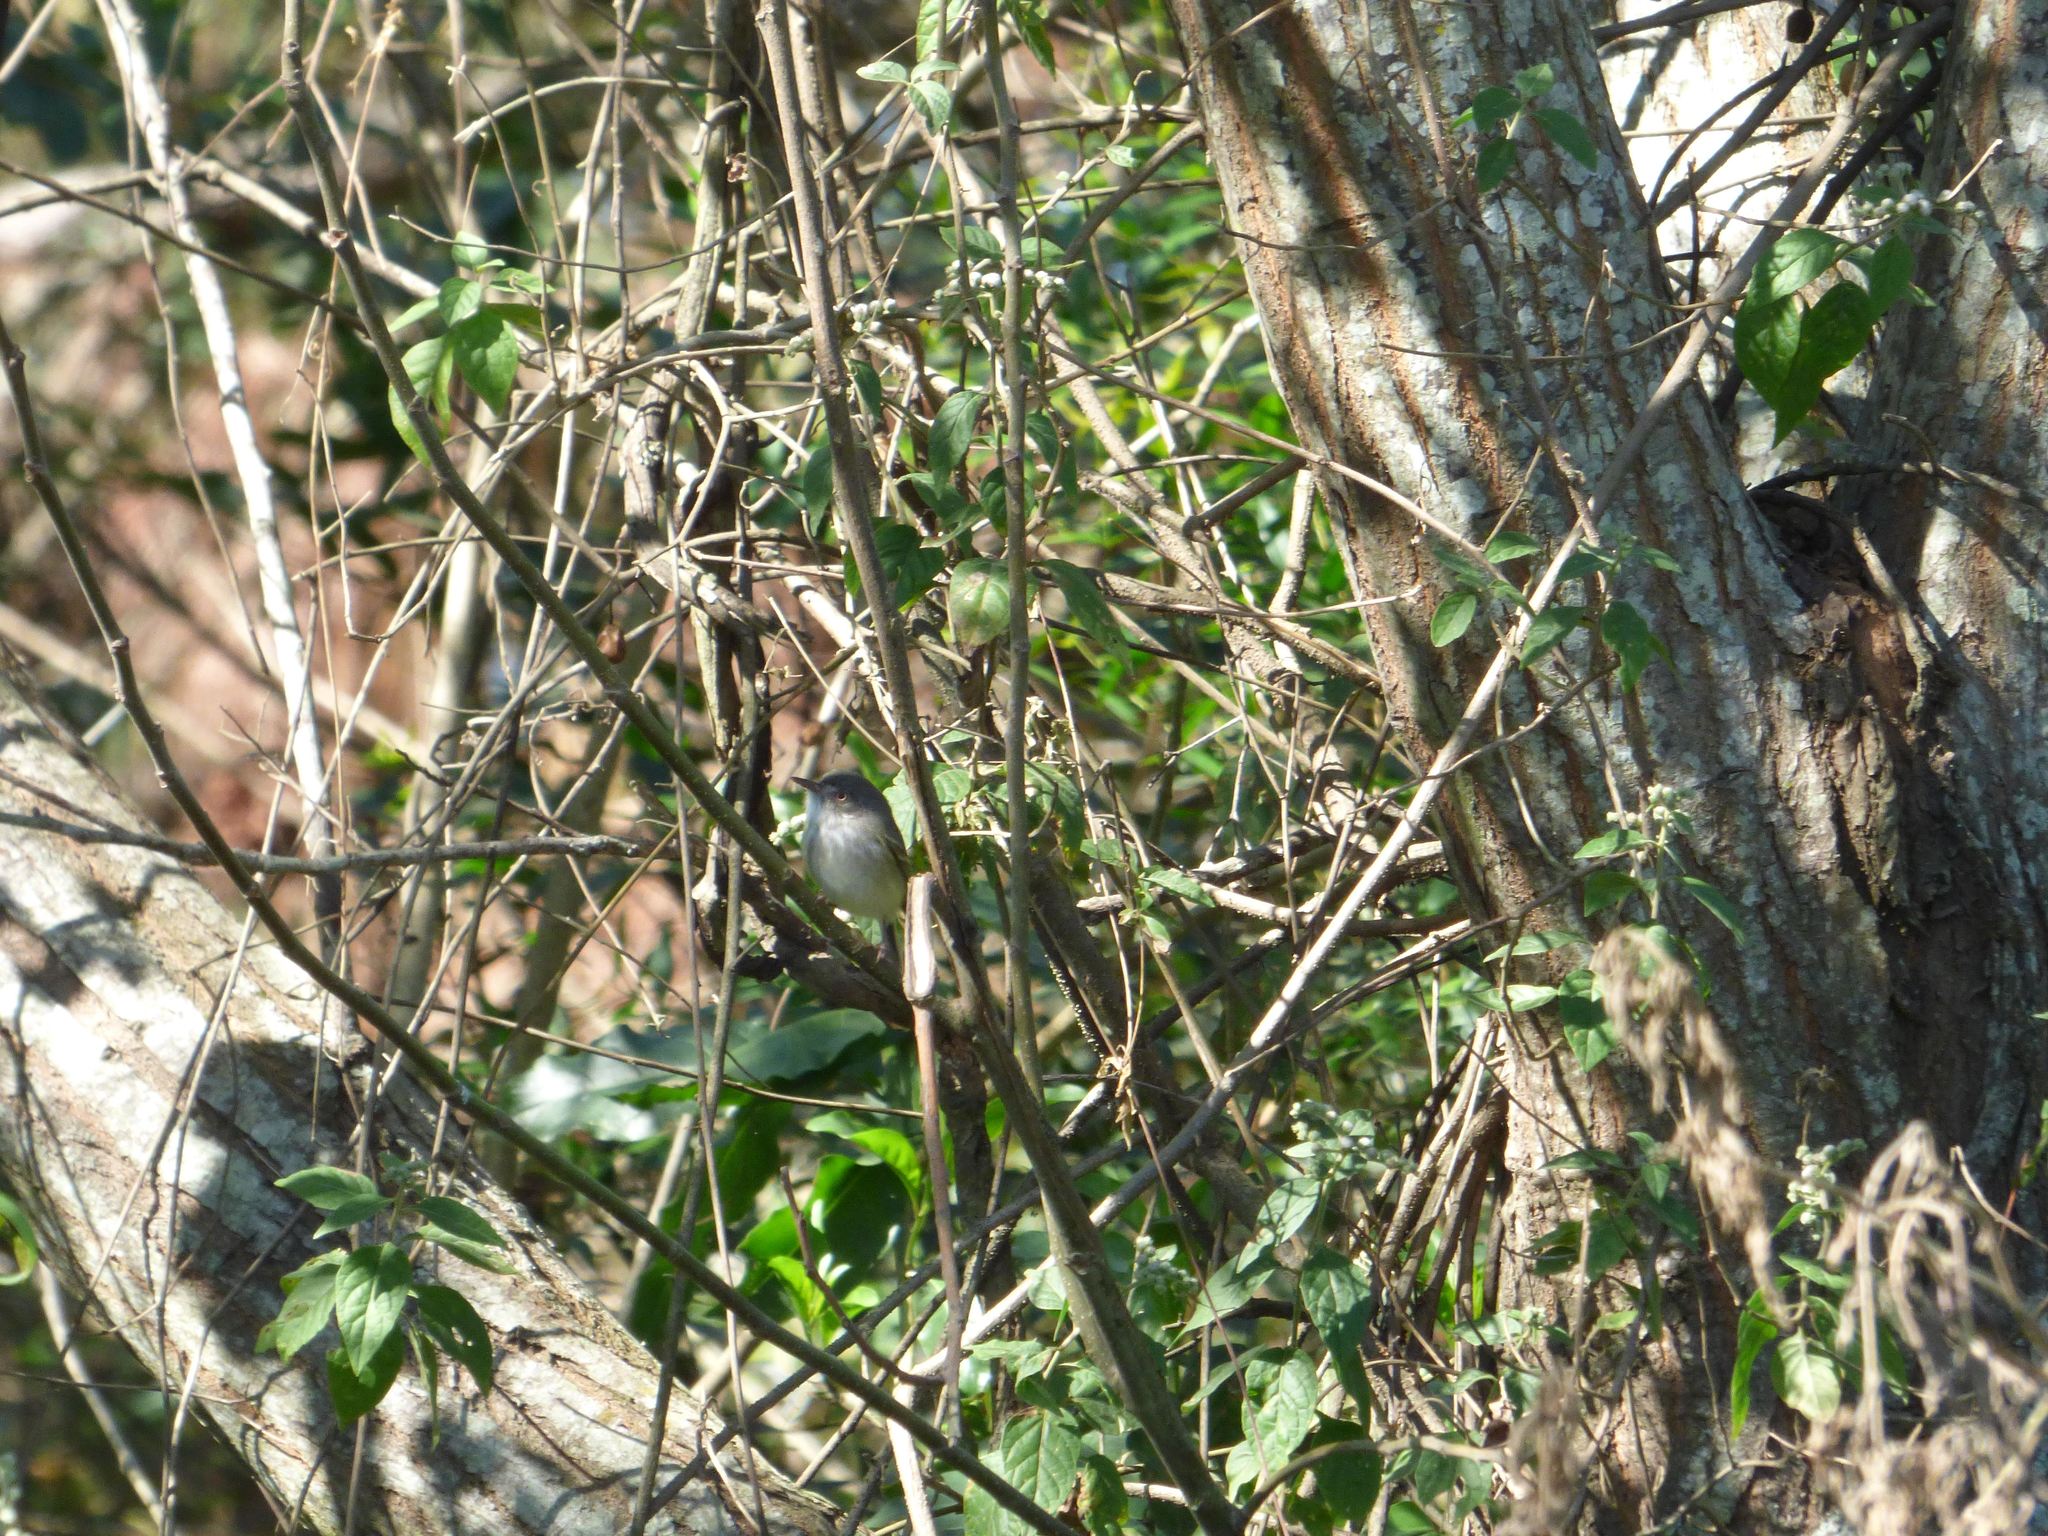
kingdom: Animalia
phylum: Chordata
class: Aves
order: Passeriformes
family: Tyrannidae
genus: Hemitriccus
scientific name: Hemitriccus margaritaceiventer
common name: Pearly-vented tody-tyrant
